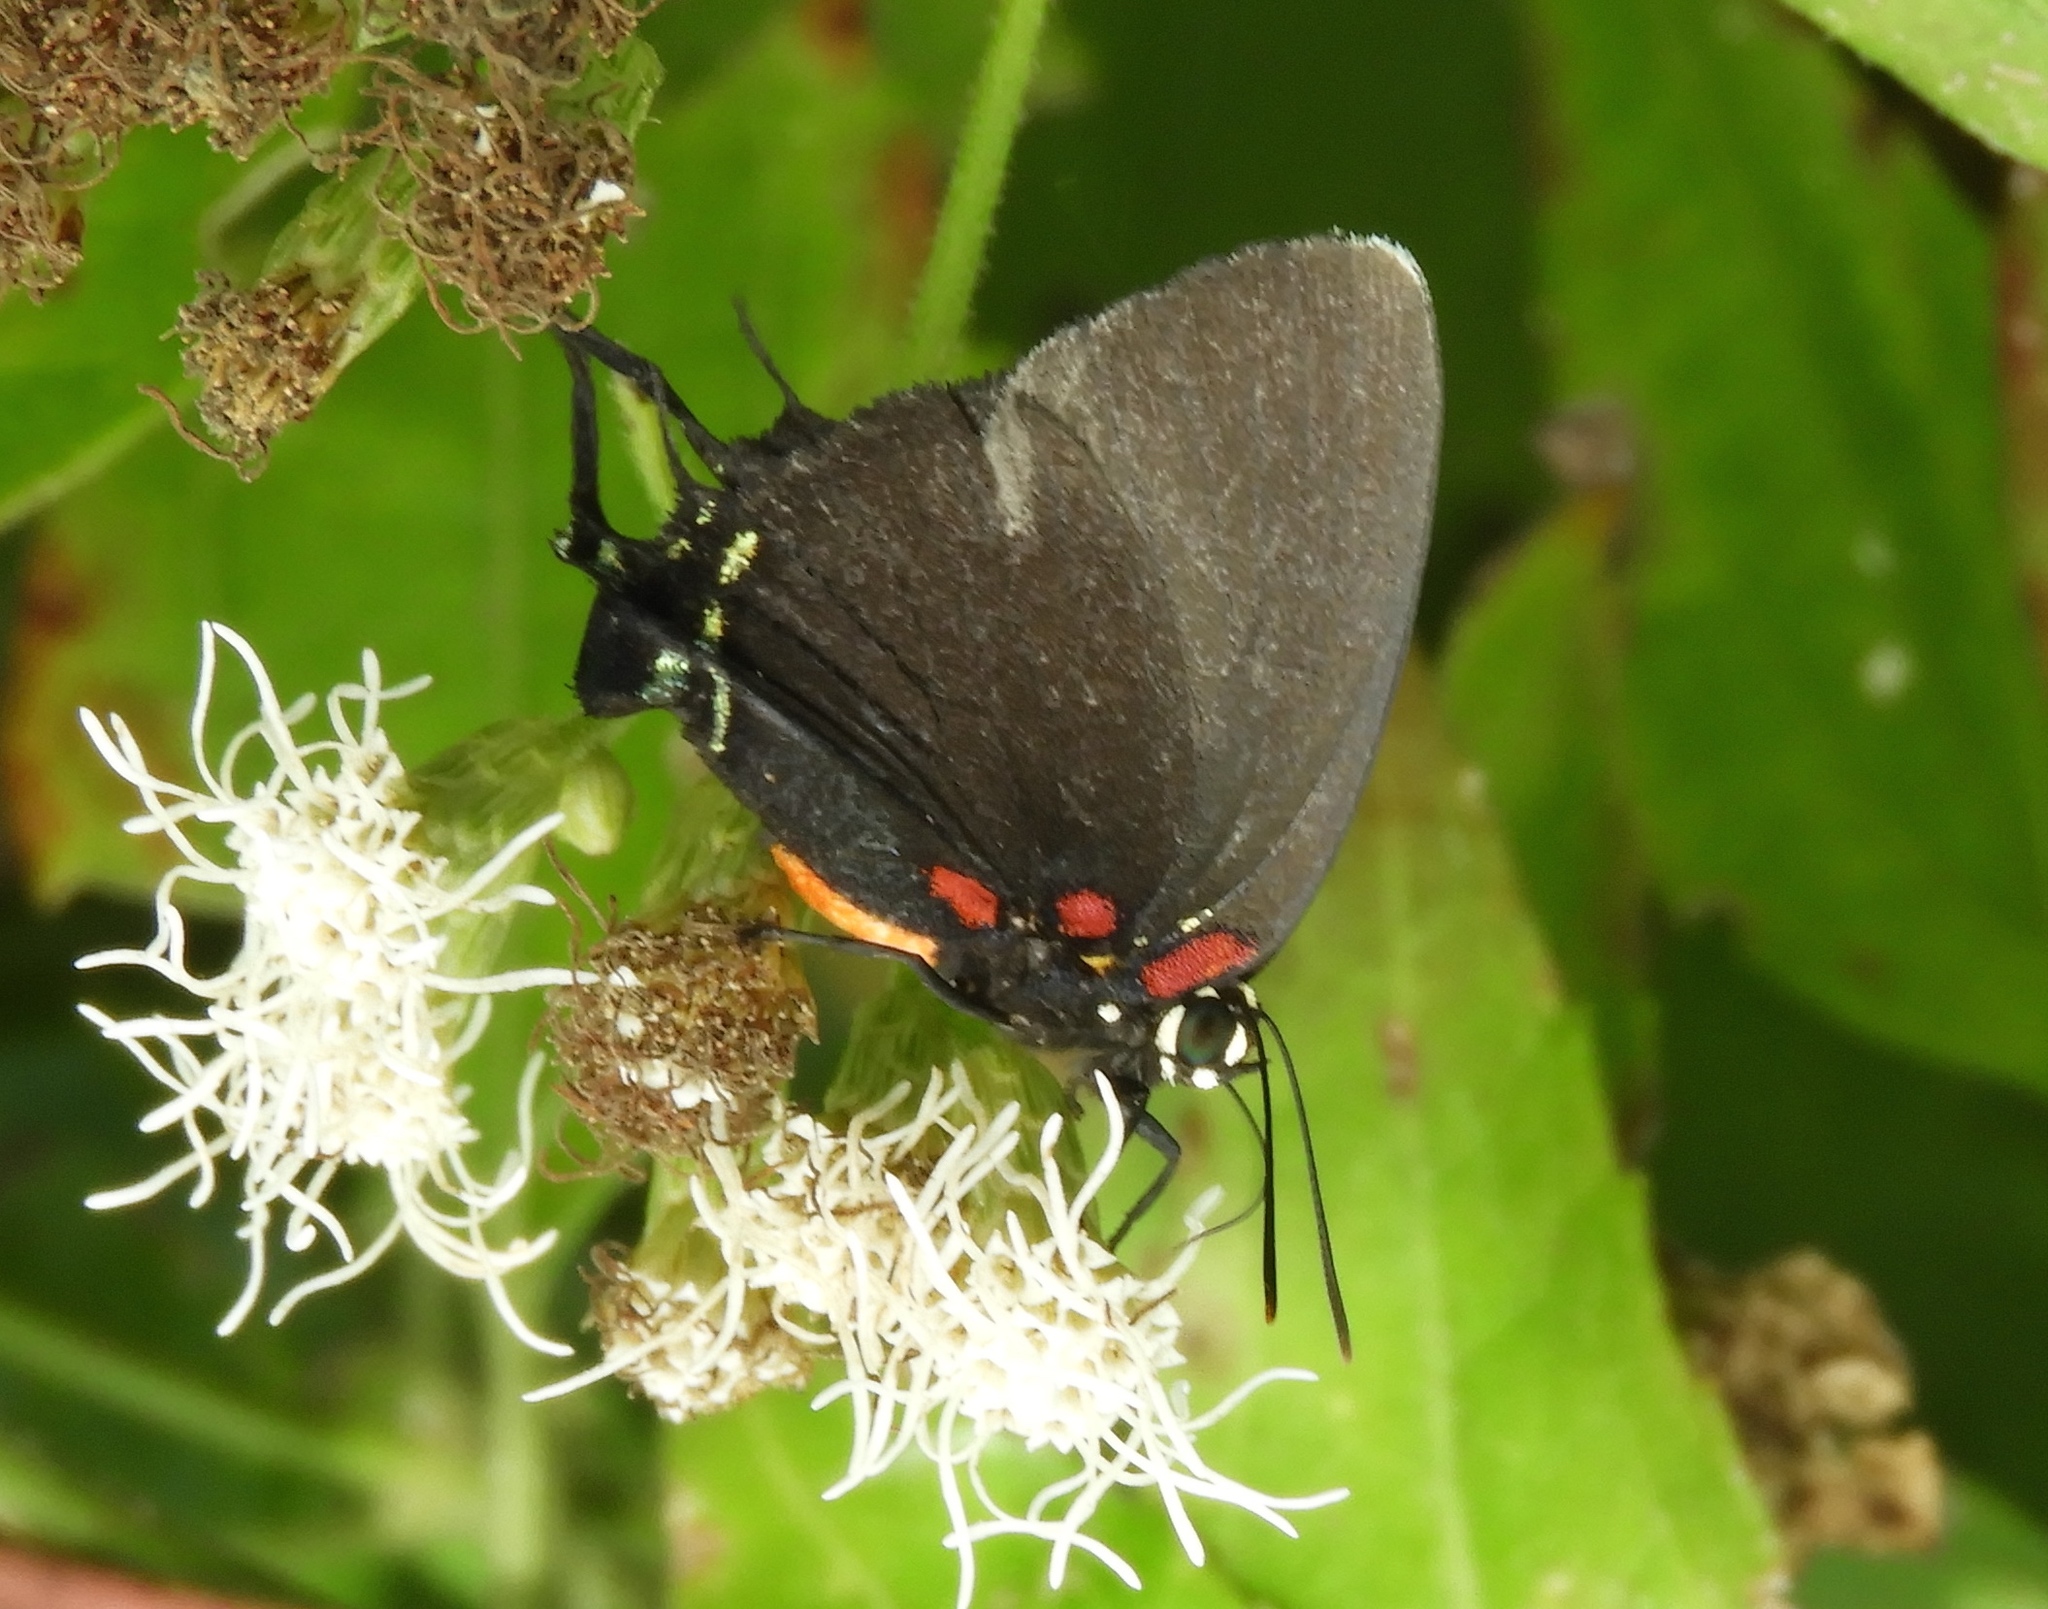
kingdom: Animalia
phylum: Arthropoda
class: Insecta
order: Lepidoptera
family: Lycaenidae
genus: Atlides
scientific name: Atlides halesus
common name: Great purple hairstreak
